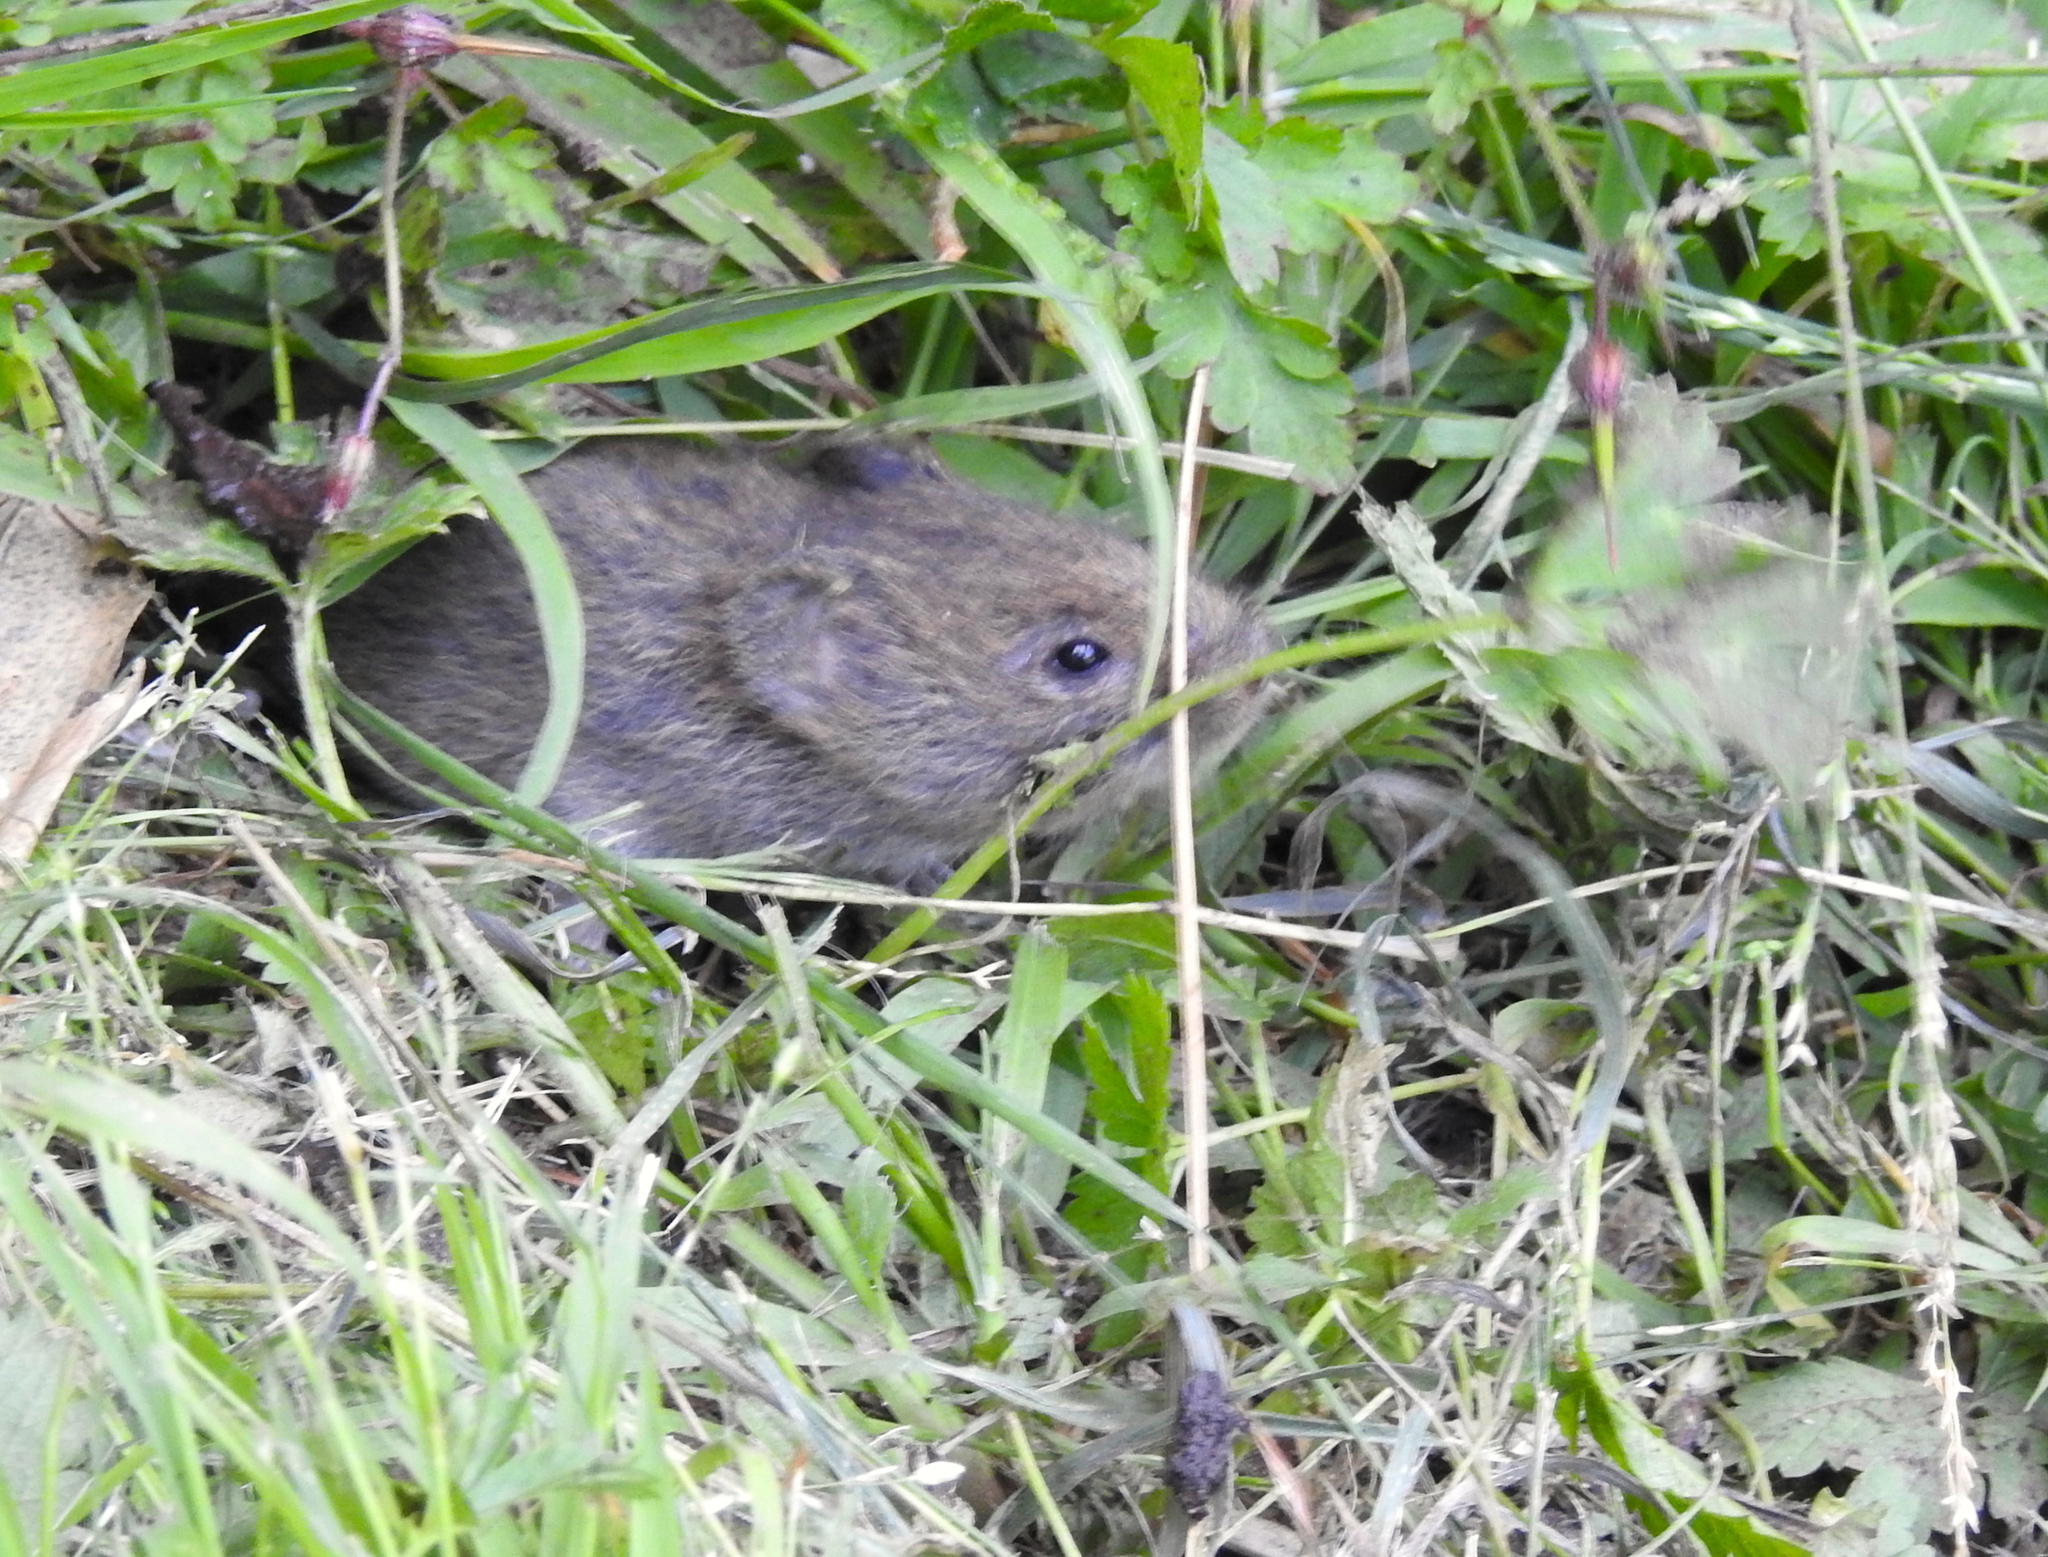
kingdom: Animalia
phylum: Chordata
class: Mammalia
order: Rodentia
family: Cricetidae
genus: Microtus
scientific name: Microtus californicus
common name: California vole
